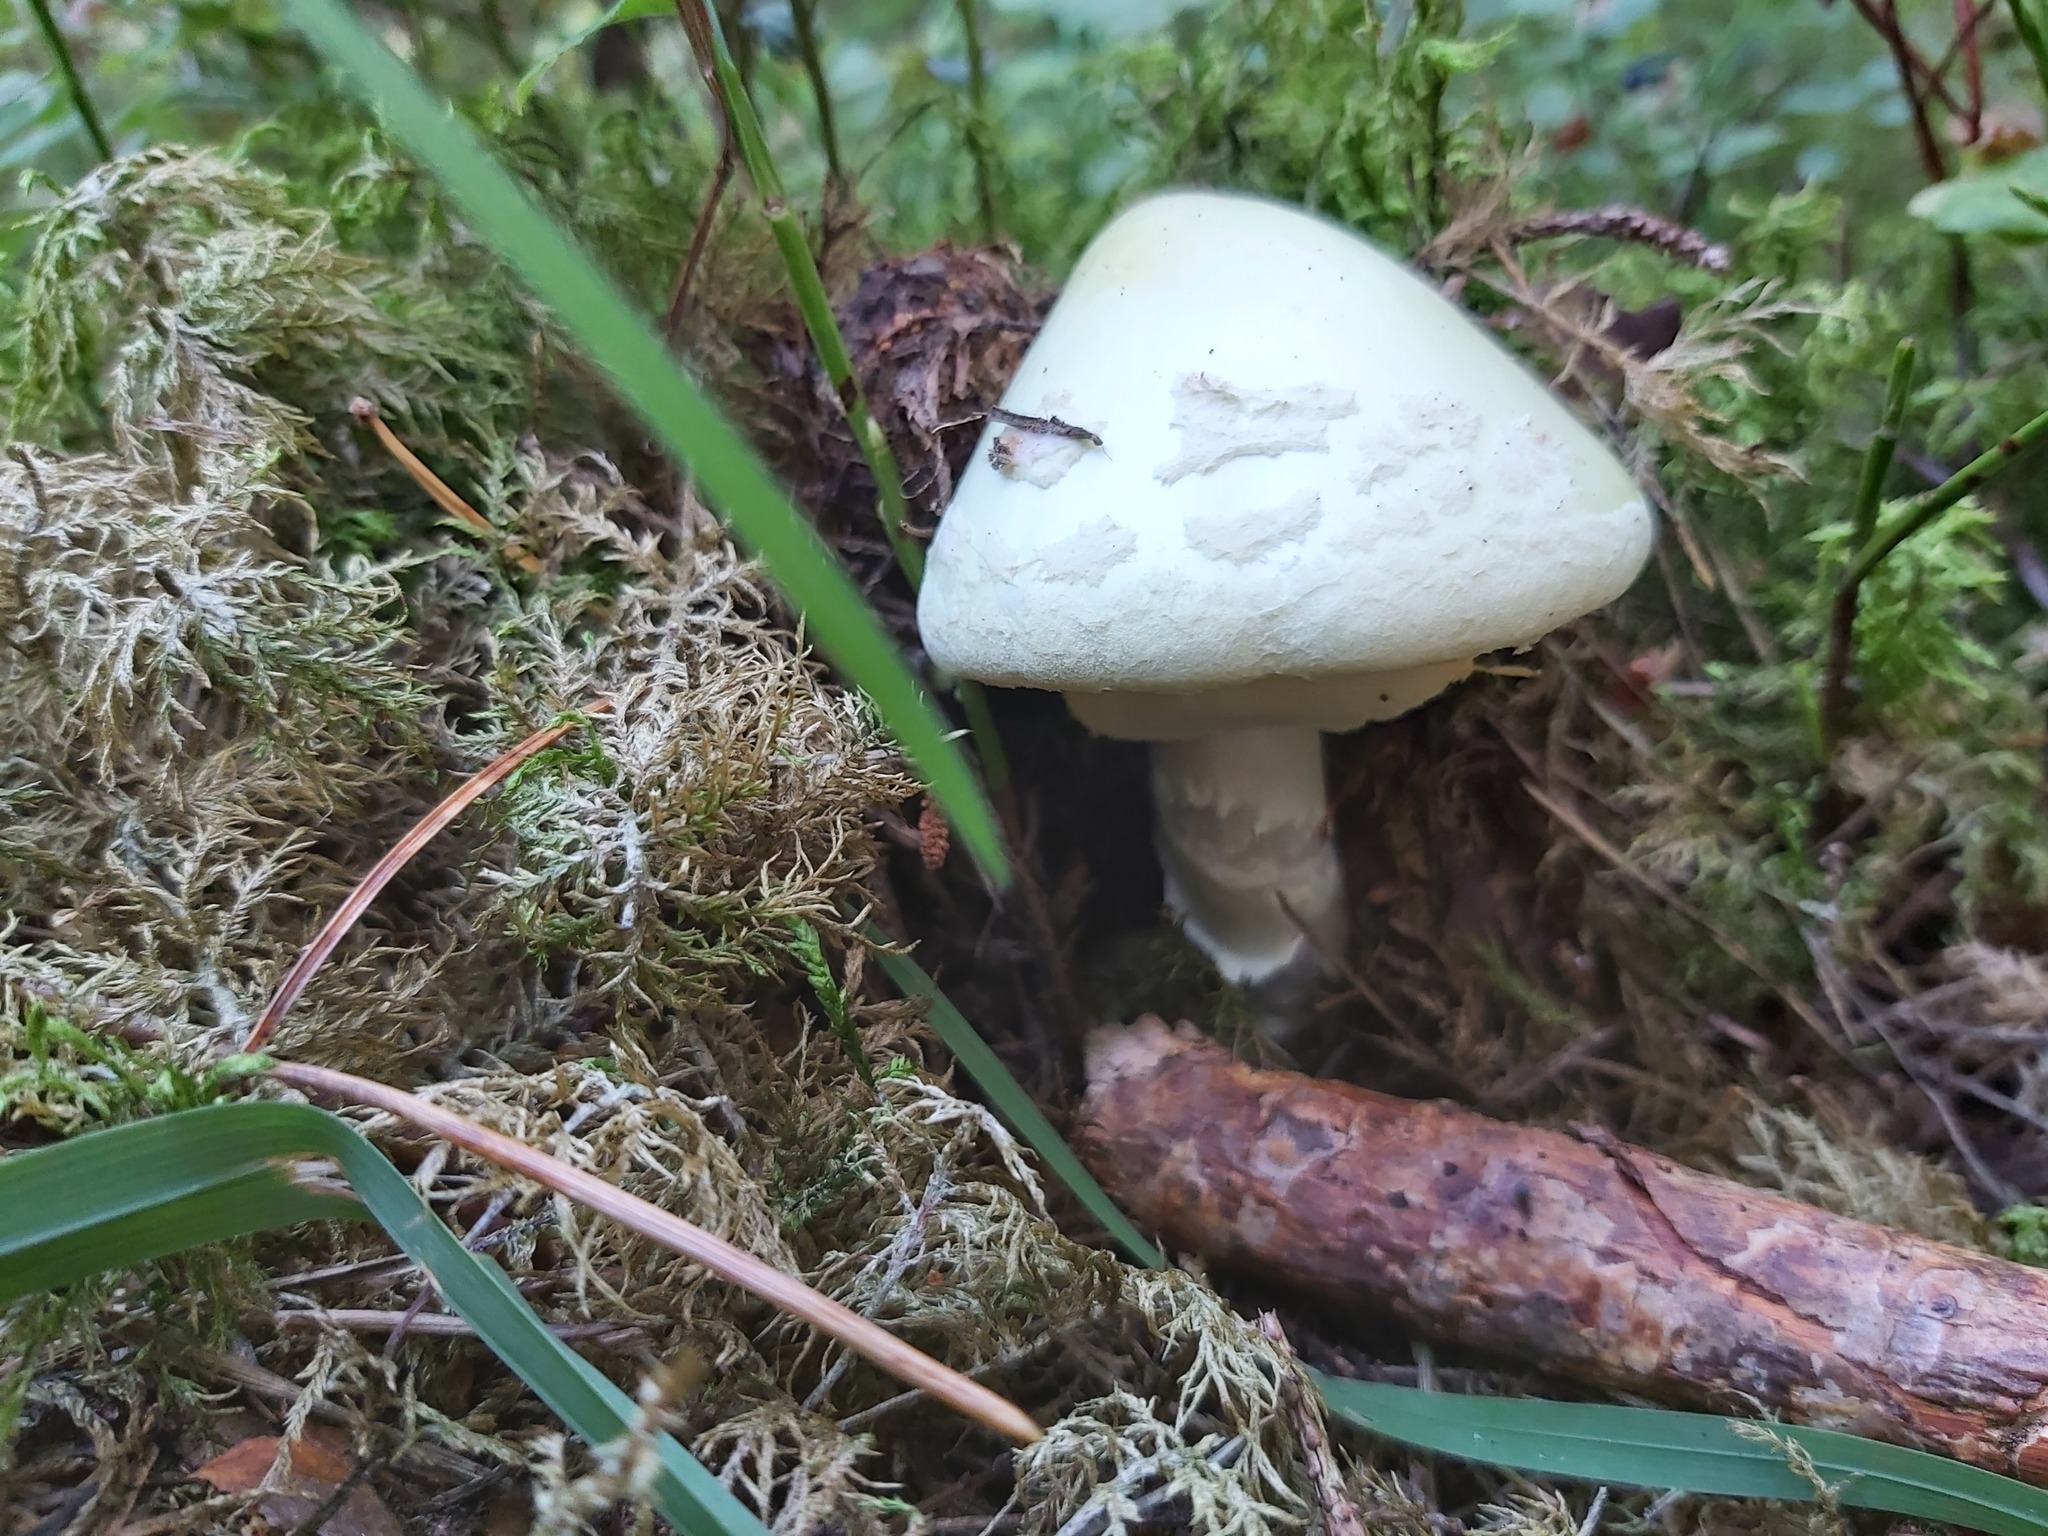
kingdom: Fungi
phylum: Basidiomycota
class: Agaricomycetes
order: Agaricales
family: Amanitaceae
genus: Amanita
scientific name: Amanita citrina
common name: False death-cap
